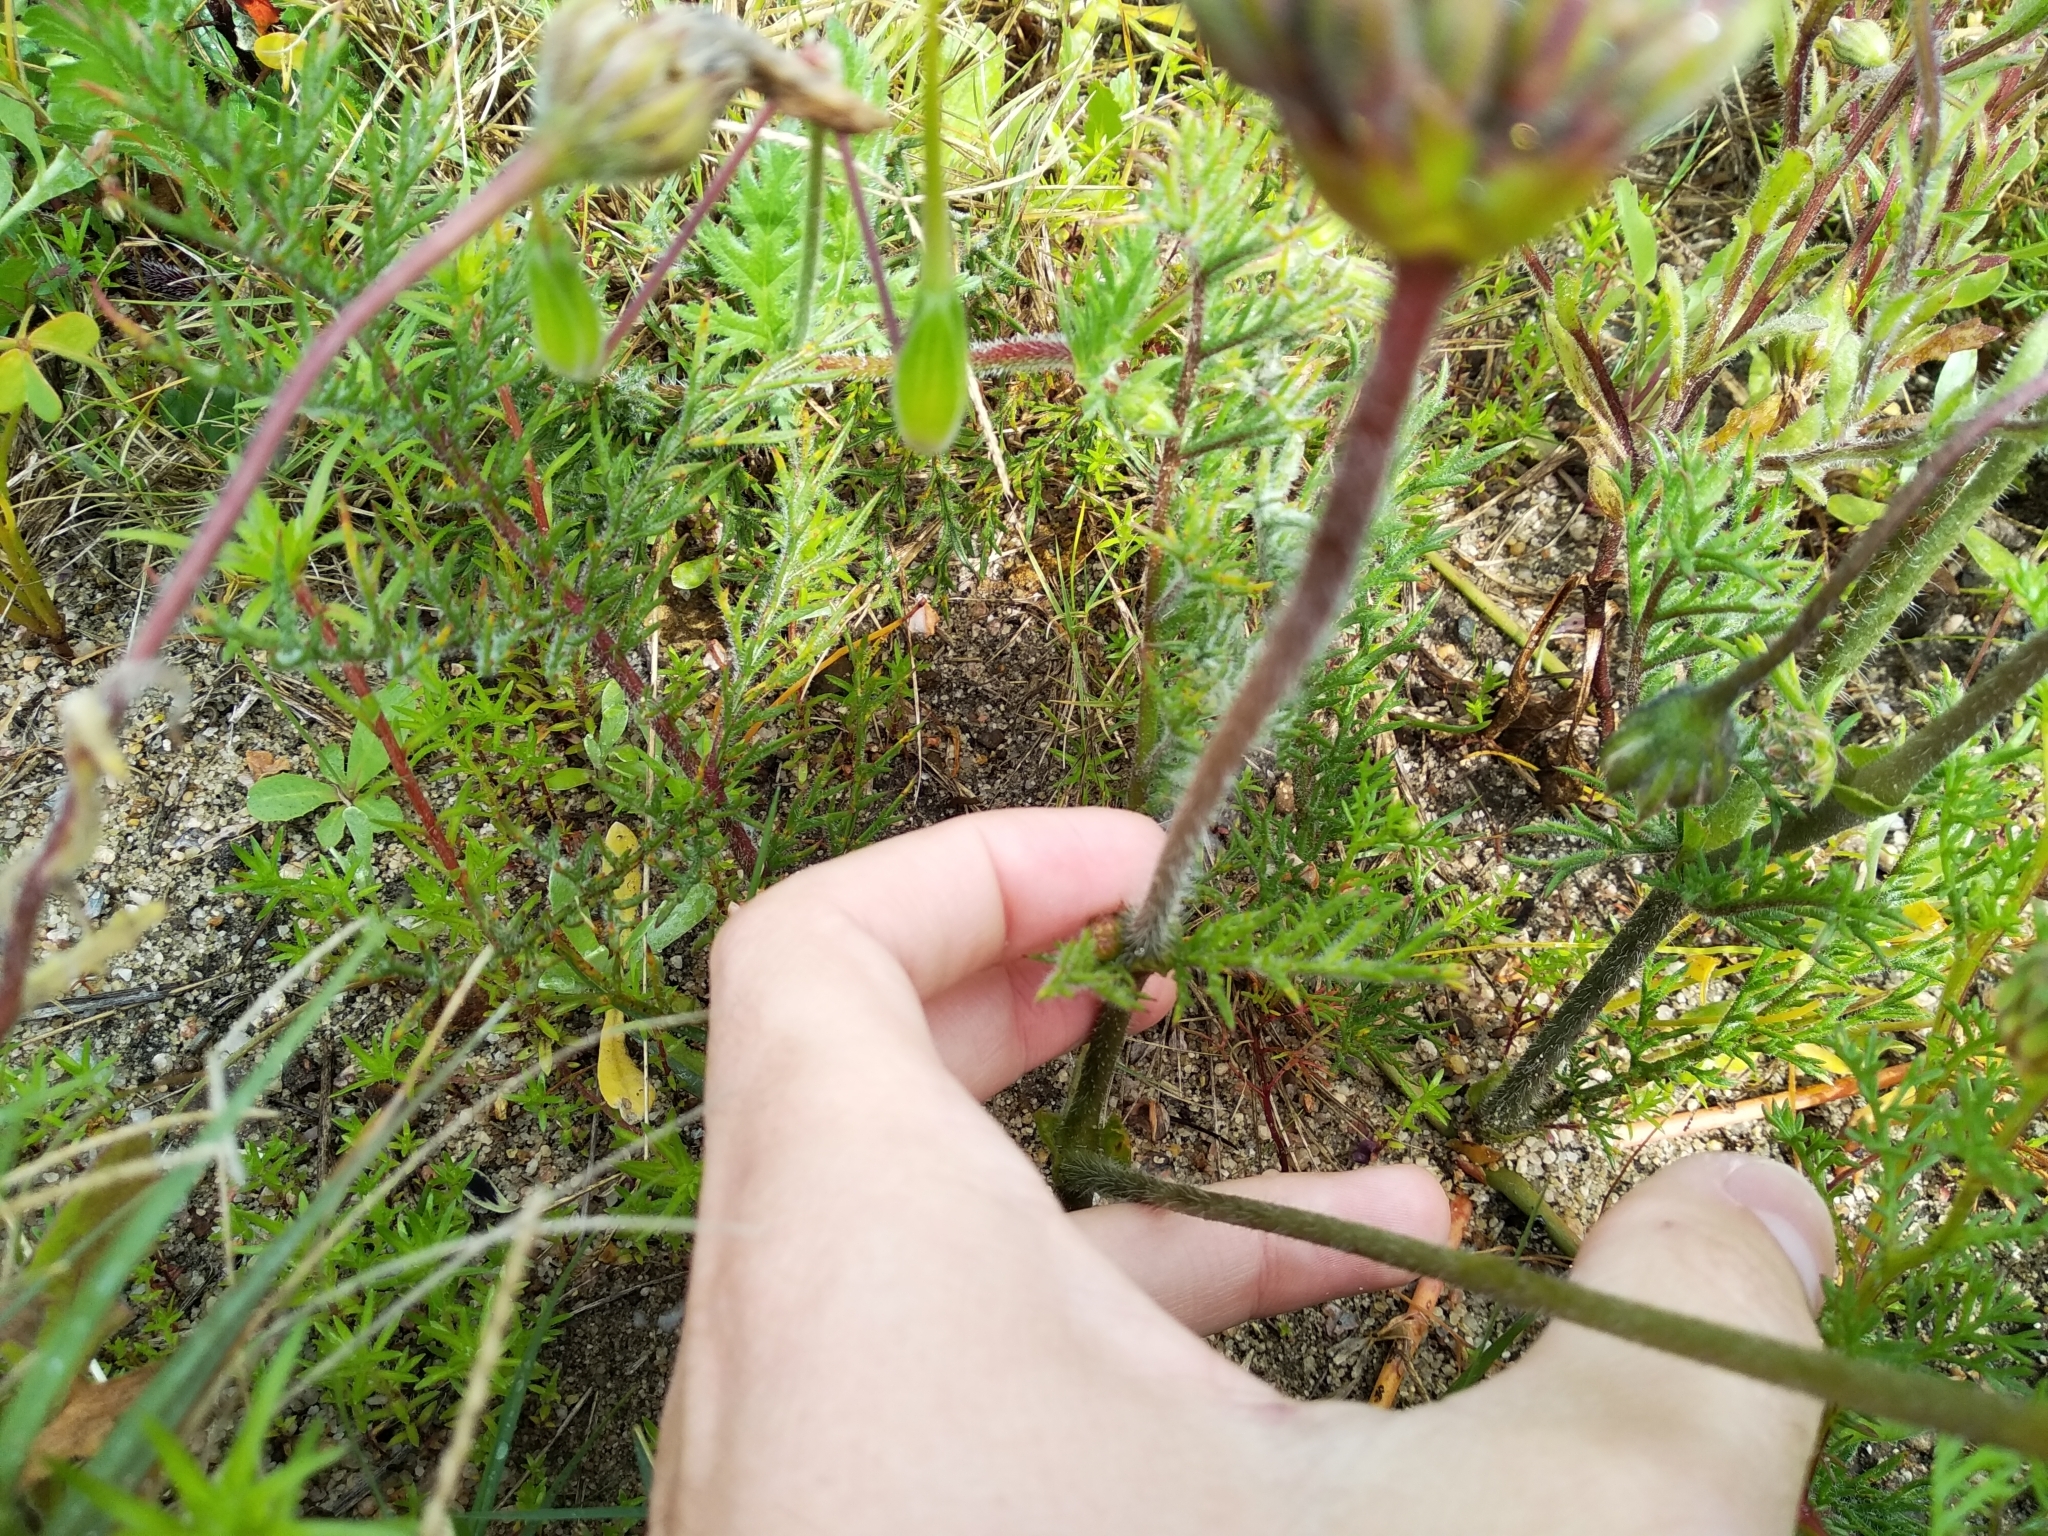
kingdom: Plantae
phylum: Tracheophyta
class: Magnoliopsida
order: Geraniales
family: Geraniaceae
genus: Pelargonium
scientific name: Pelargonium triste
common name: Night-scent pelargonium
